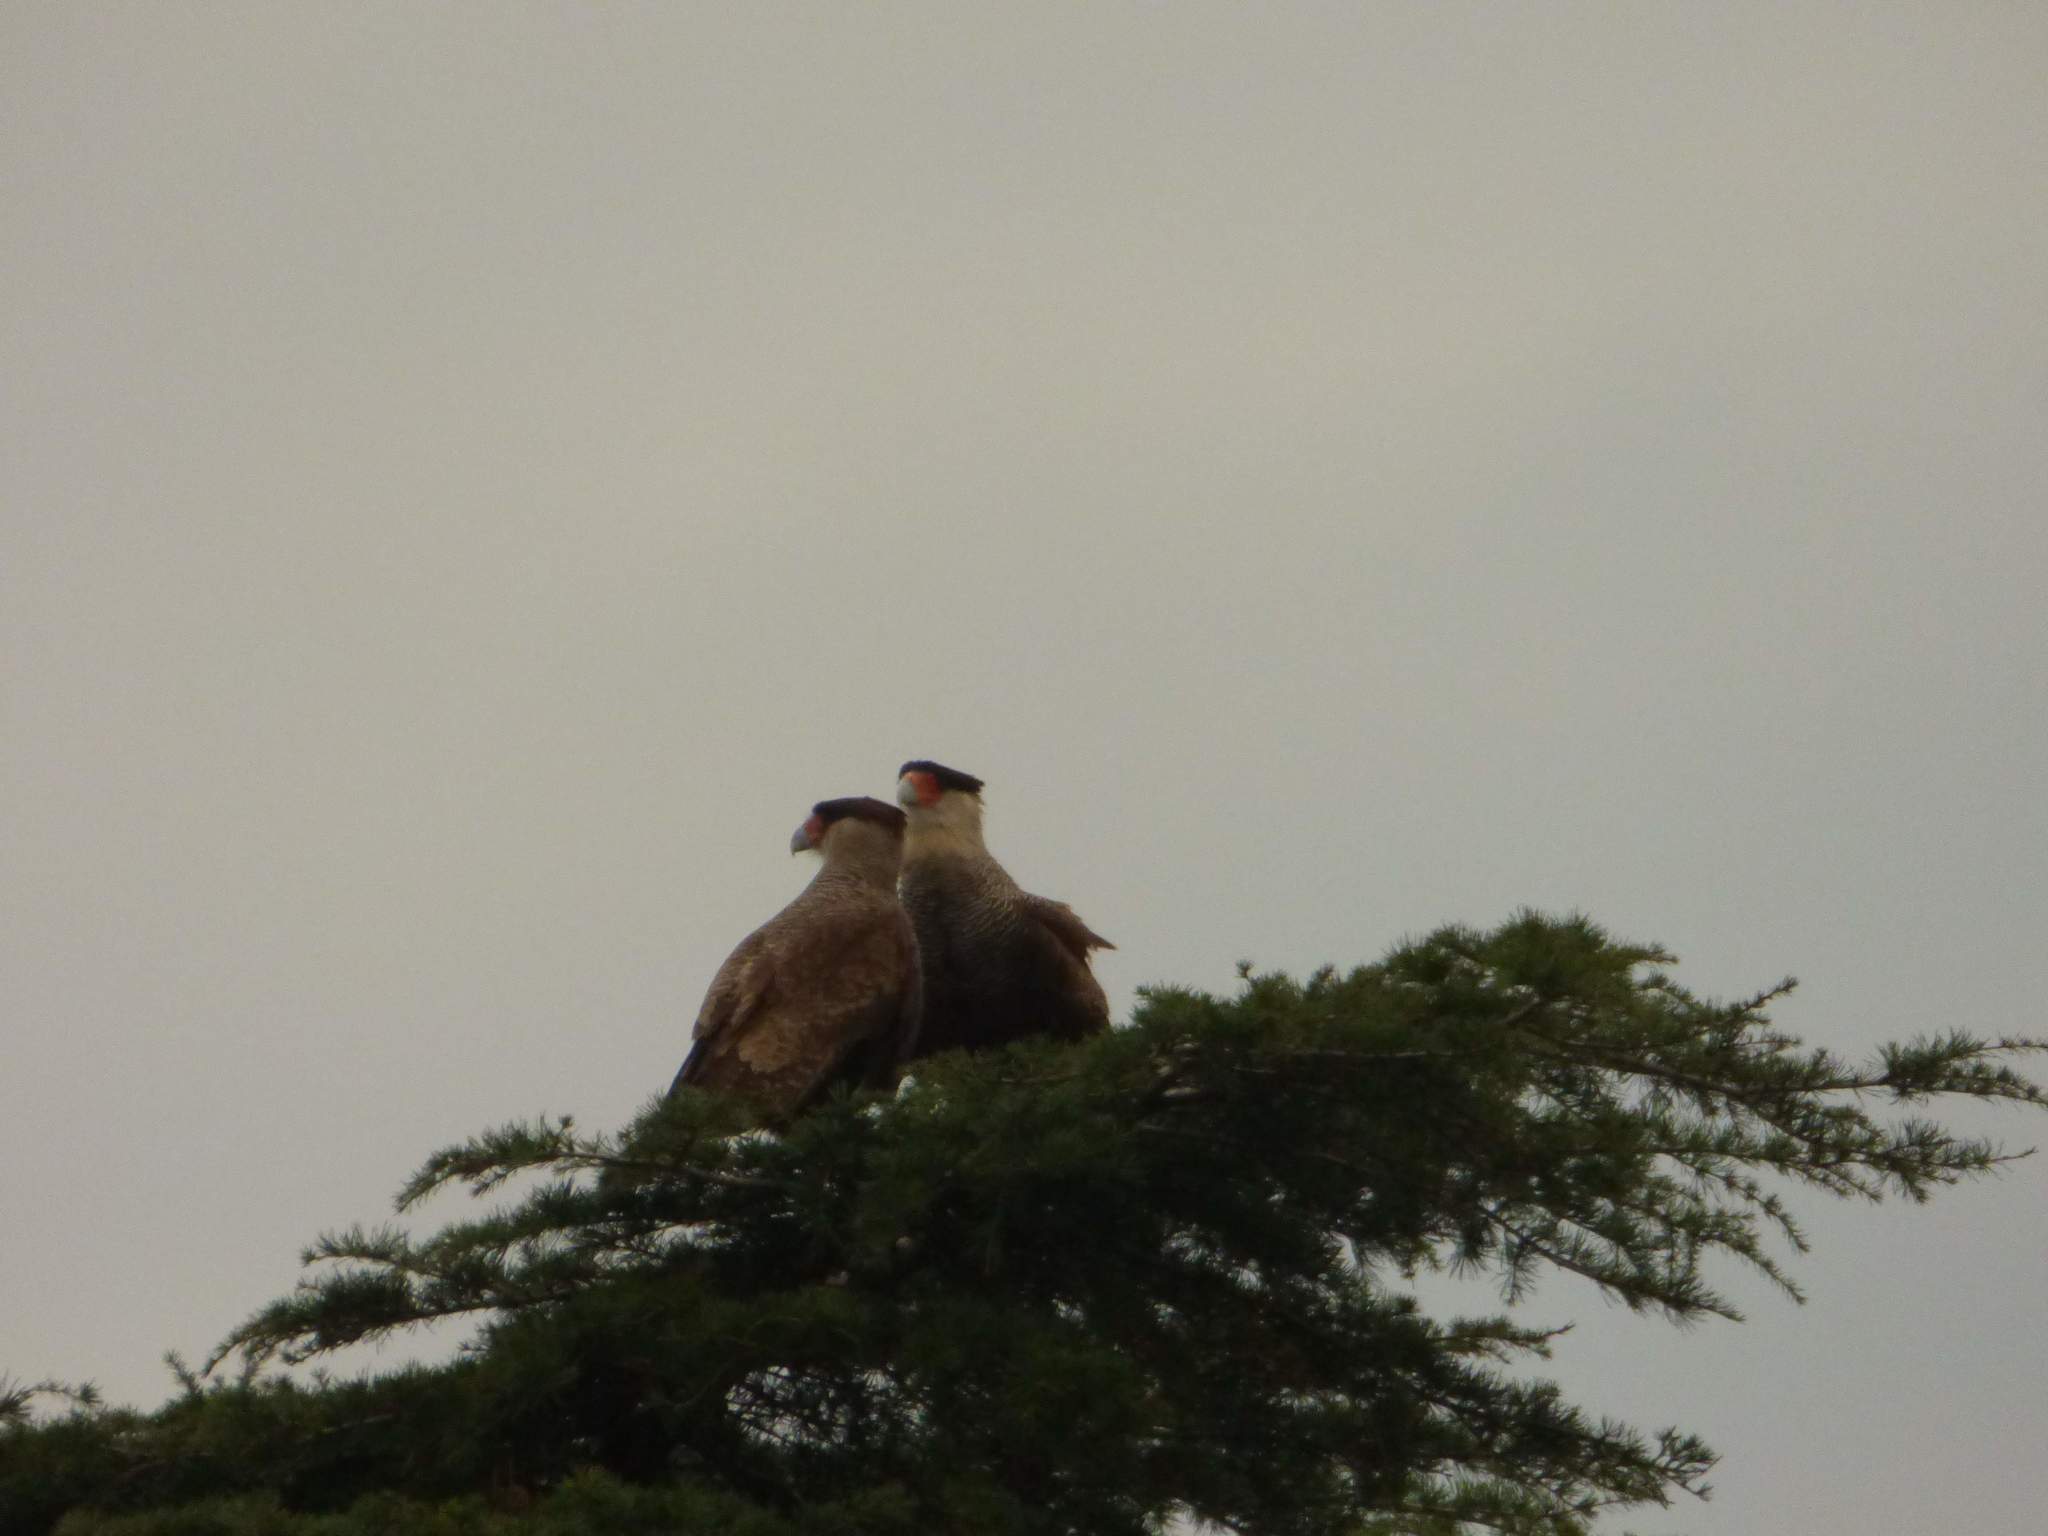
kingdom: Animalia
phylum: Chordata
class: Aves
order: Falconiformes
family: Falconidae
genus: Caracara
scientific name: Caracara plancus
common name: Southern caracara
